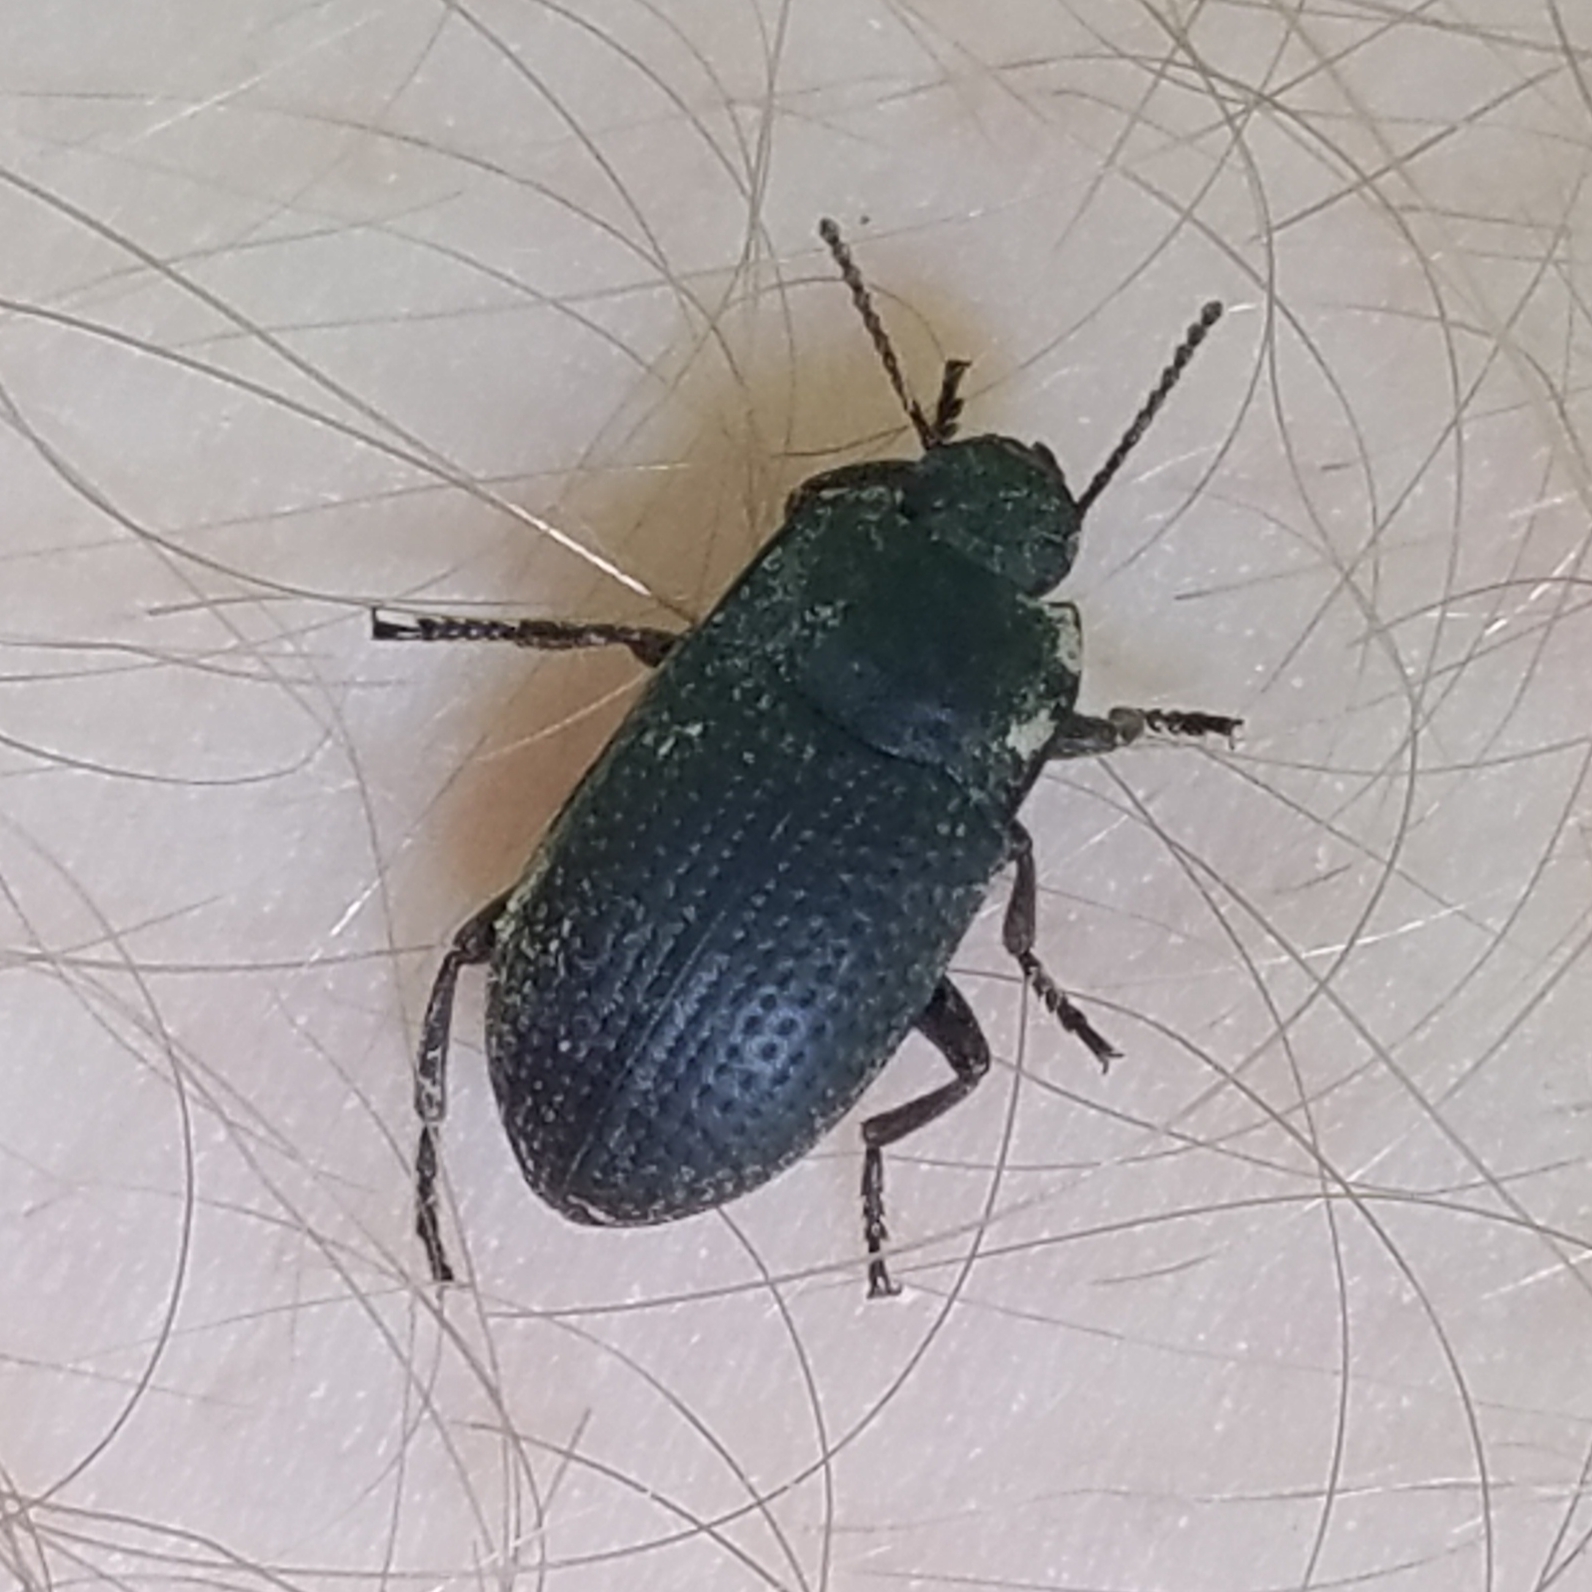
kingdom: Animalia
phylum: Arthropoda
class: Insecta
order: Coleoptera
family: Tenebrionidae
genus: Asiopus
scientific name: Asiopus
